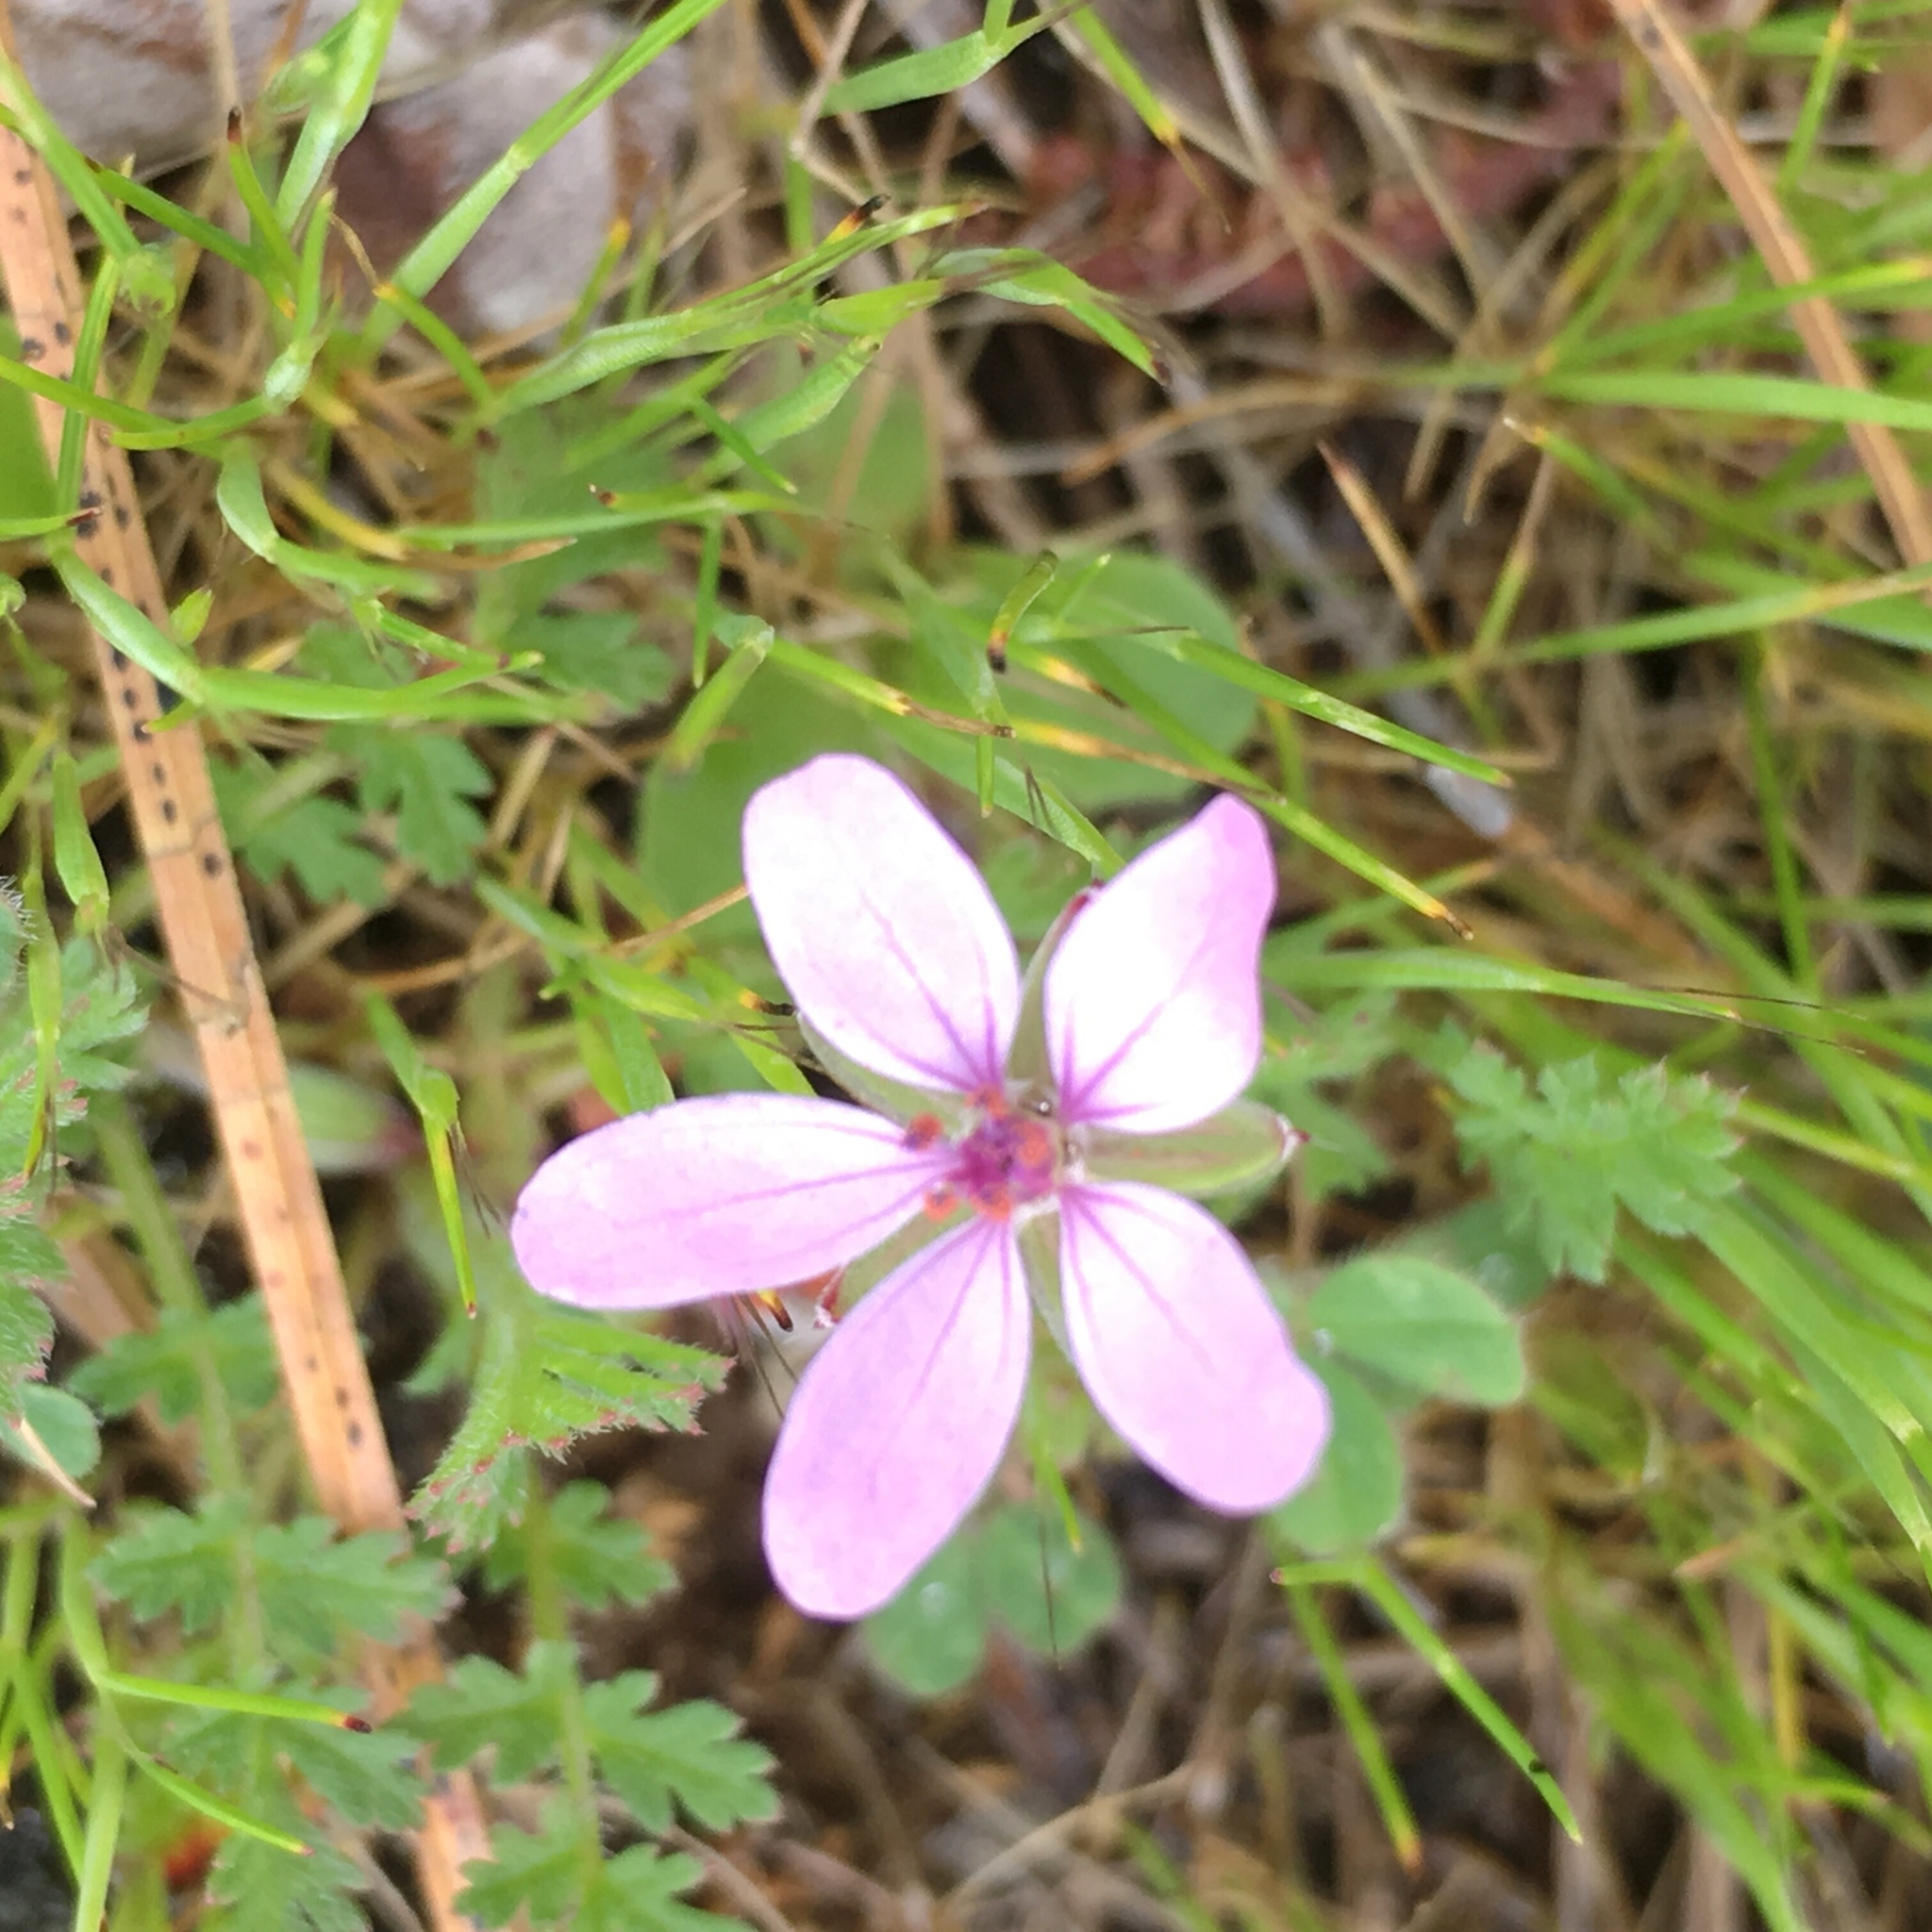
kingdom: Plantae
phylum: Tracheophyta
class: Magnoliopsida
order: Geraniales
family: Geraniaceae
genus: Erodium
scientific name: Erodium cicutarium
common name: Common stork's-bill
